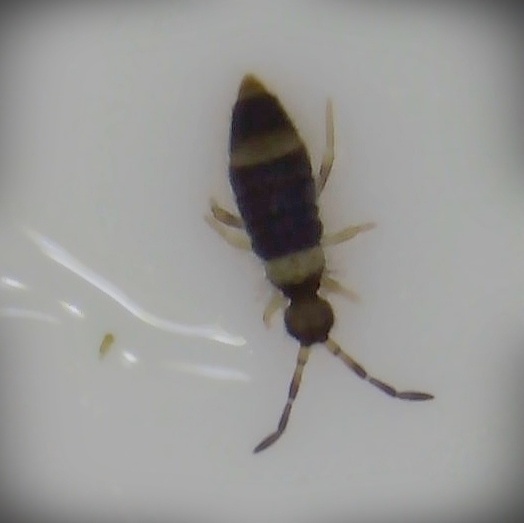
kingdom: Animalia
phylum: Arthropoda
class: Collembola
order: Entomobryomorpha
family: Entomobryidae
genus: Entomobrya
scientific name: Entomobrya albocincta
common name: Springtail
